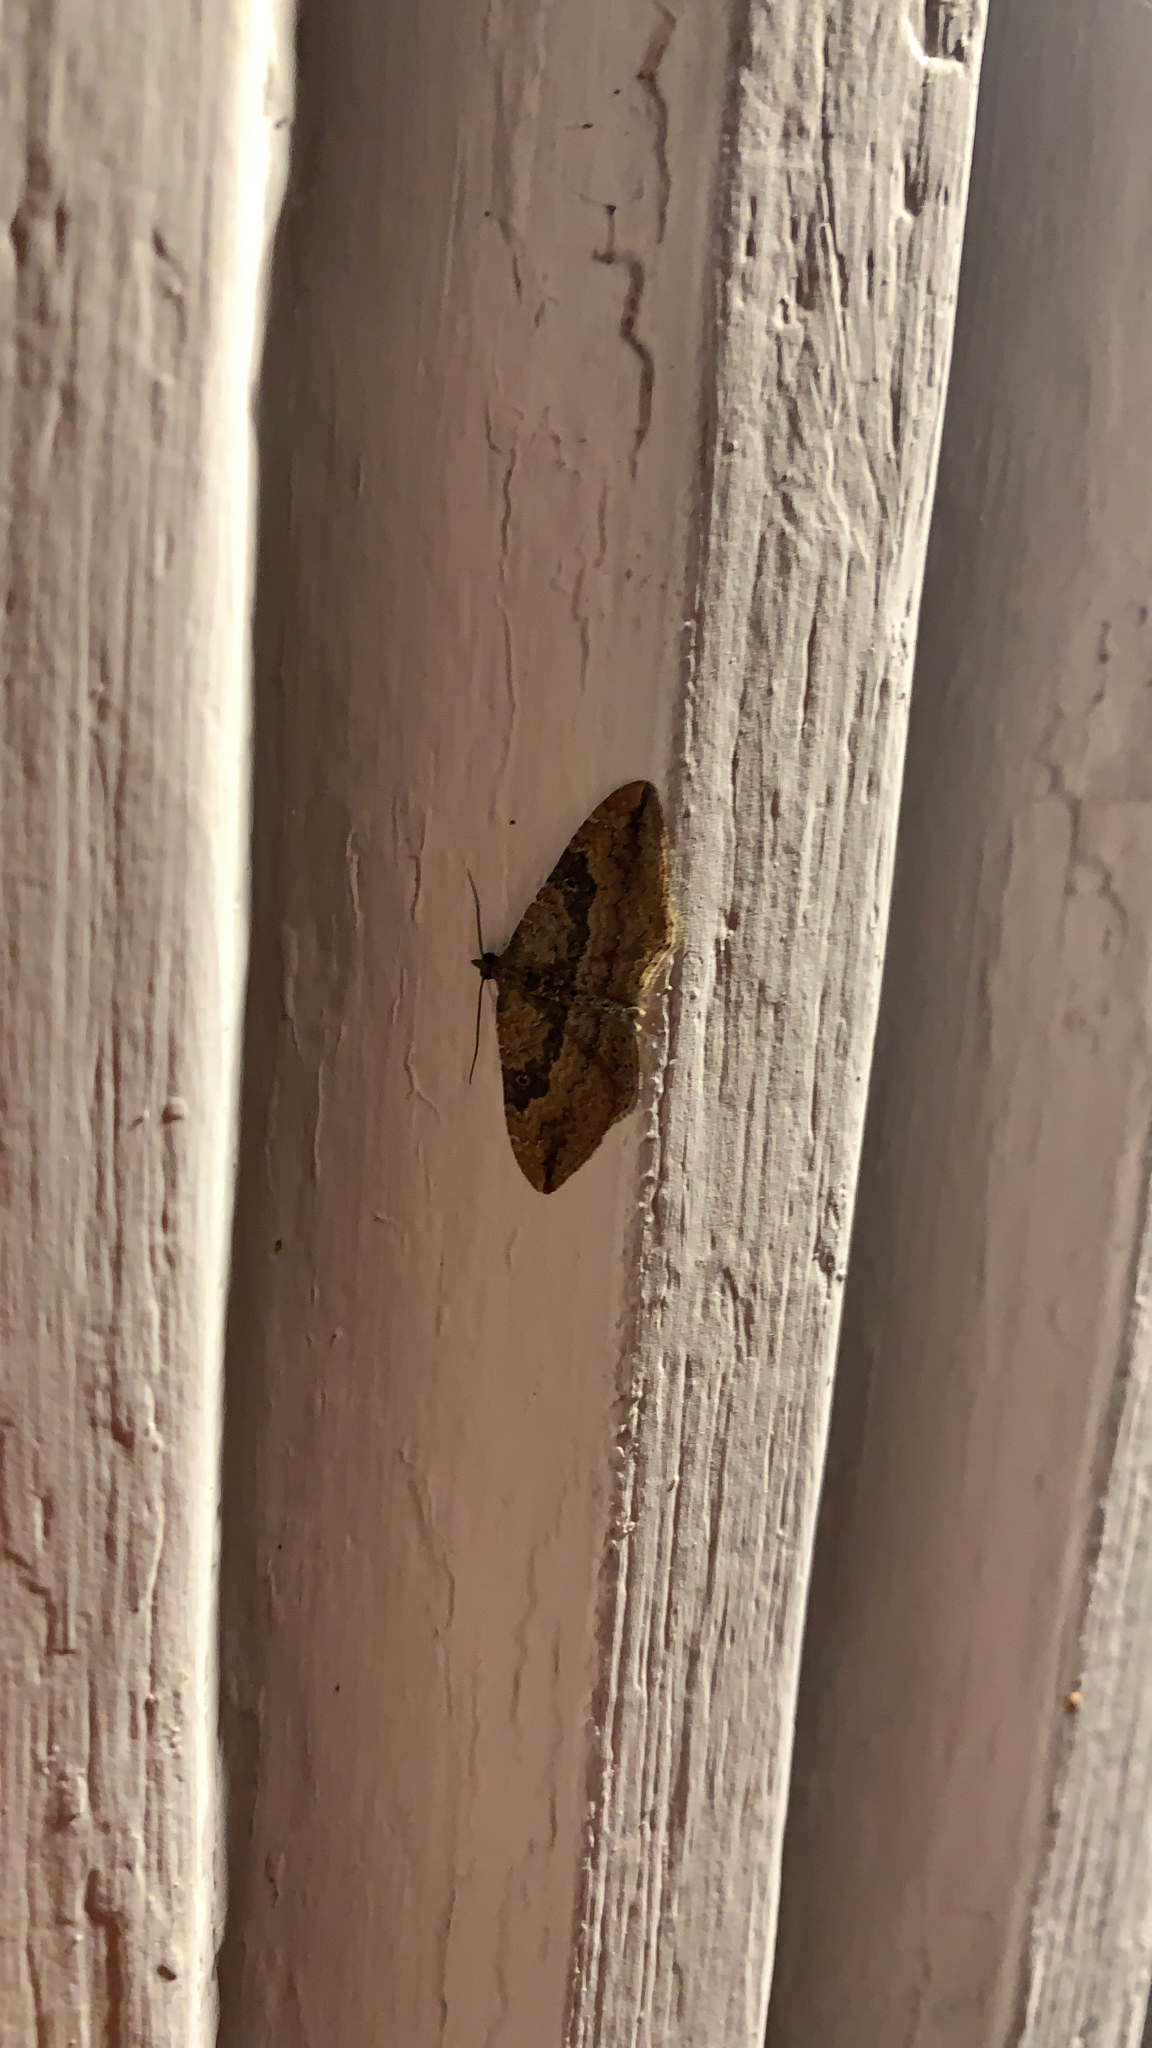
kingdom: Animalia
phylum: Arthropoda
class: Insecta
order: Lepidoptera
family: Geometridae
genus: Orthonama
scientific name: Orthonama obstipata
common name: The gem
